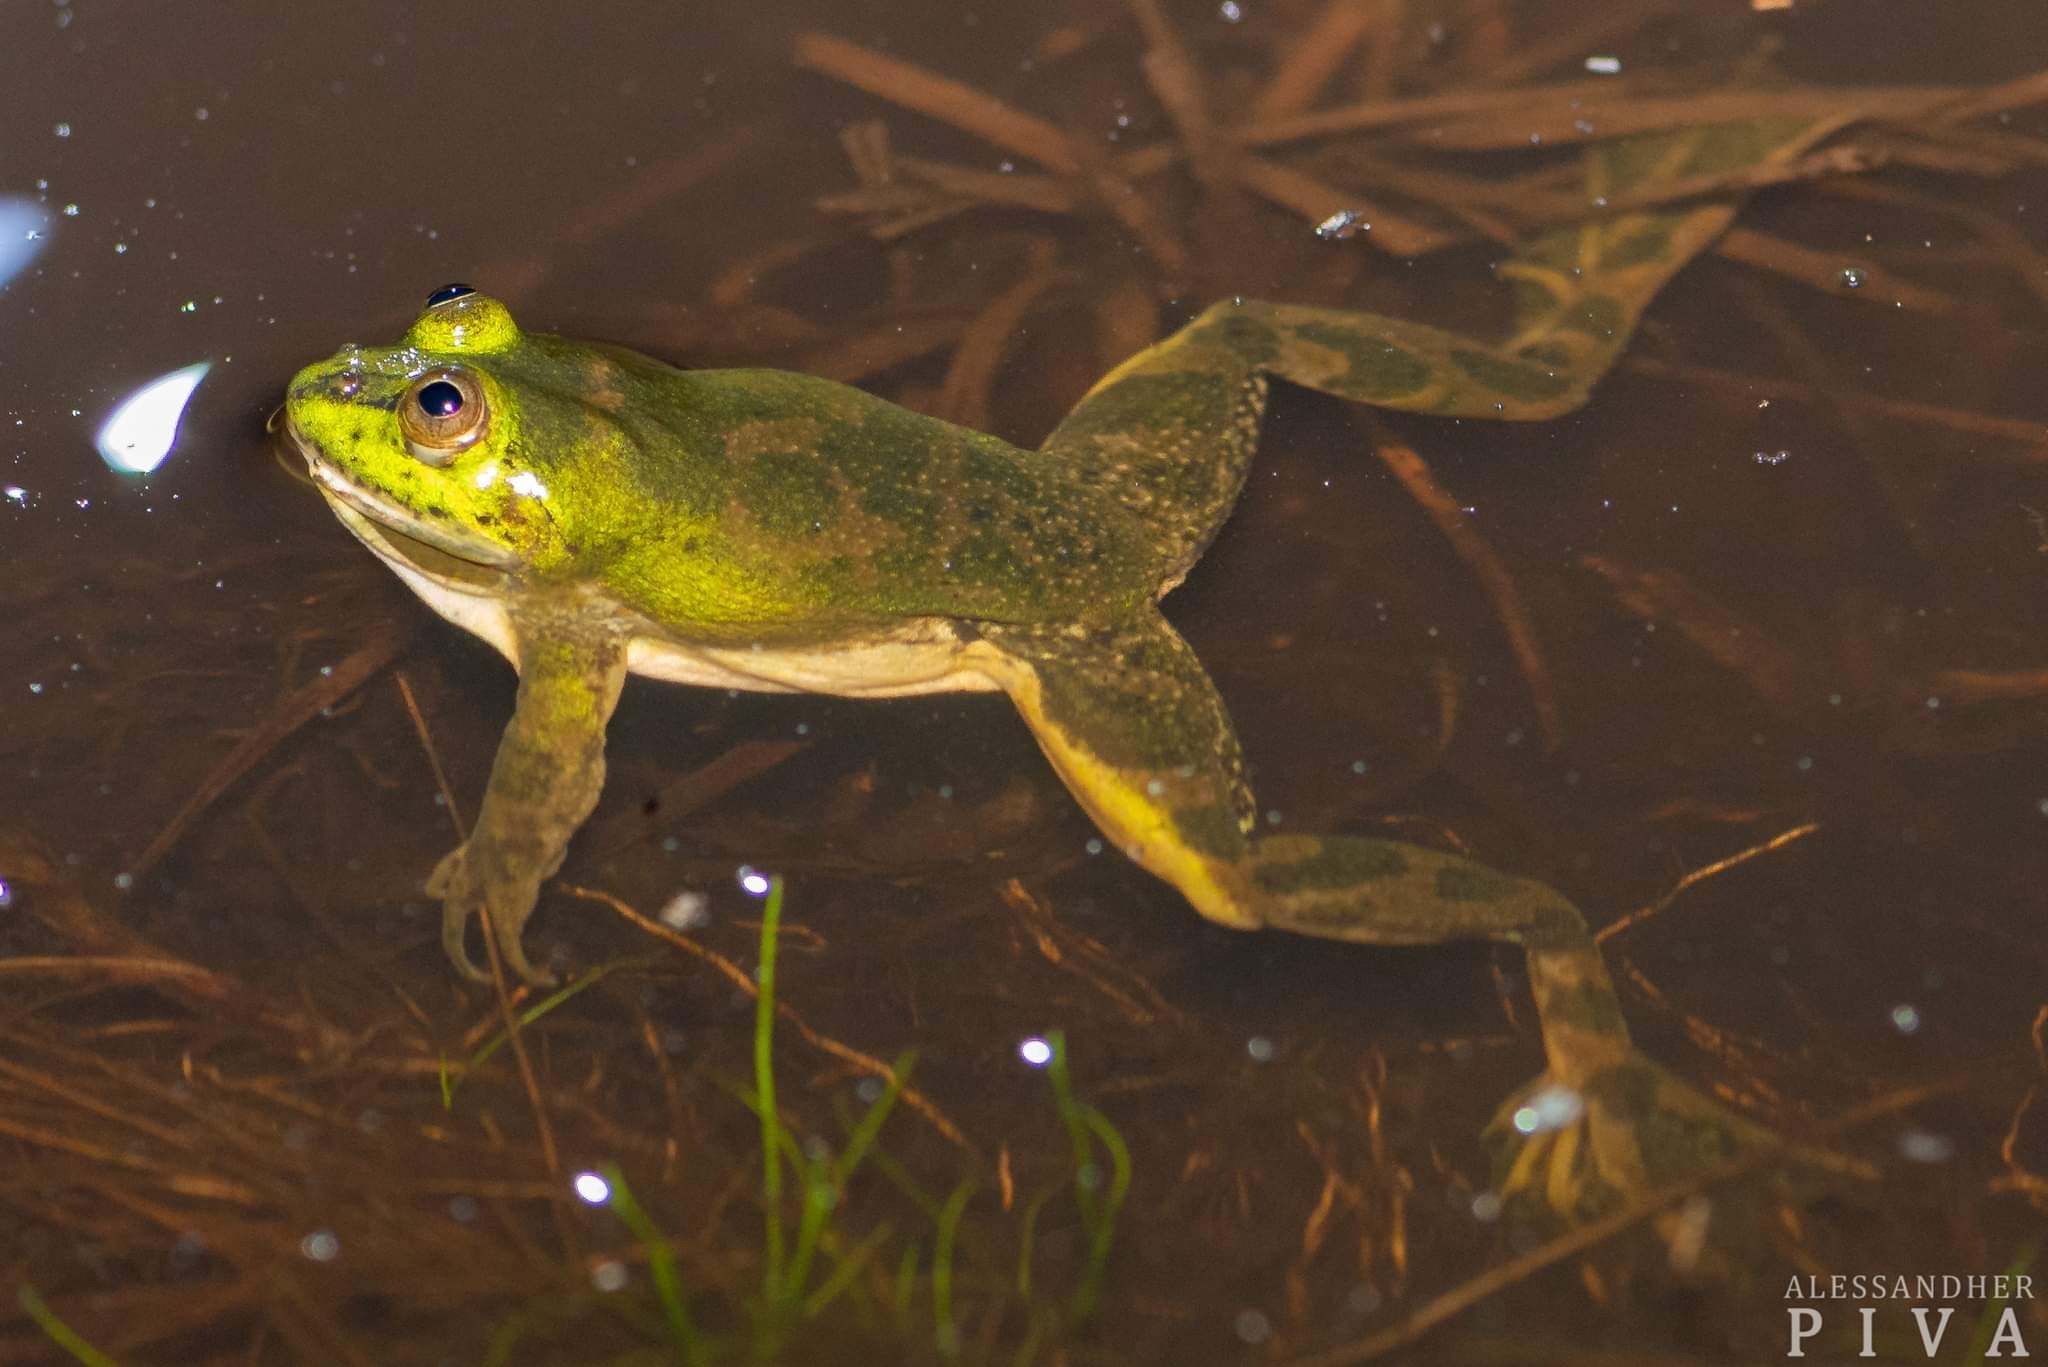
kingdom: Animalia
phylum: Chordata
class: Amphibia
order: Anura
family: Hylidae
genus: Pseudis
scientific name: Pseudis cardosoi
